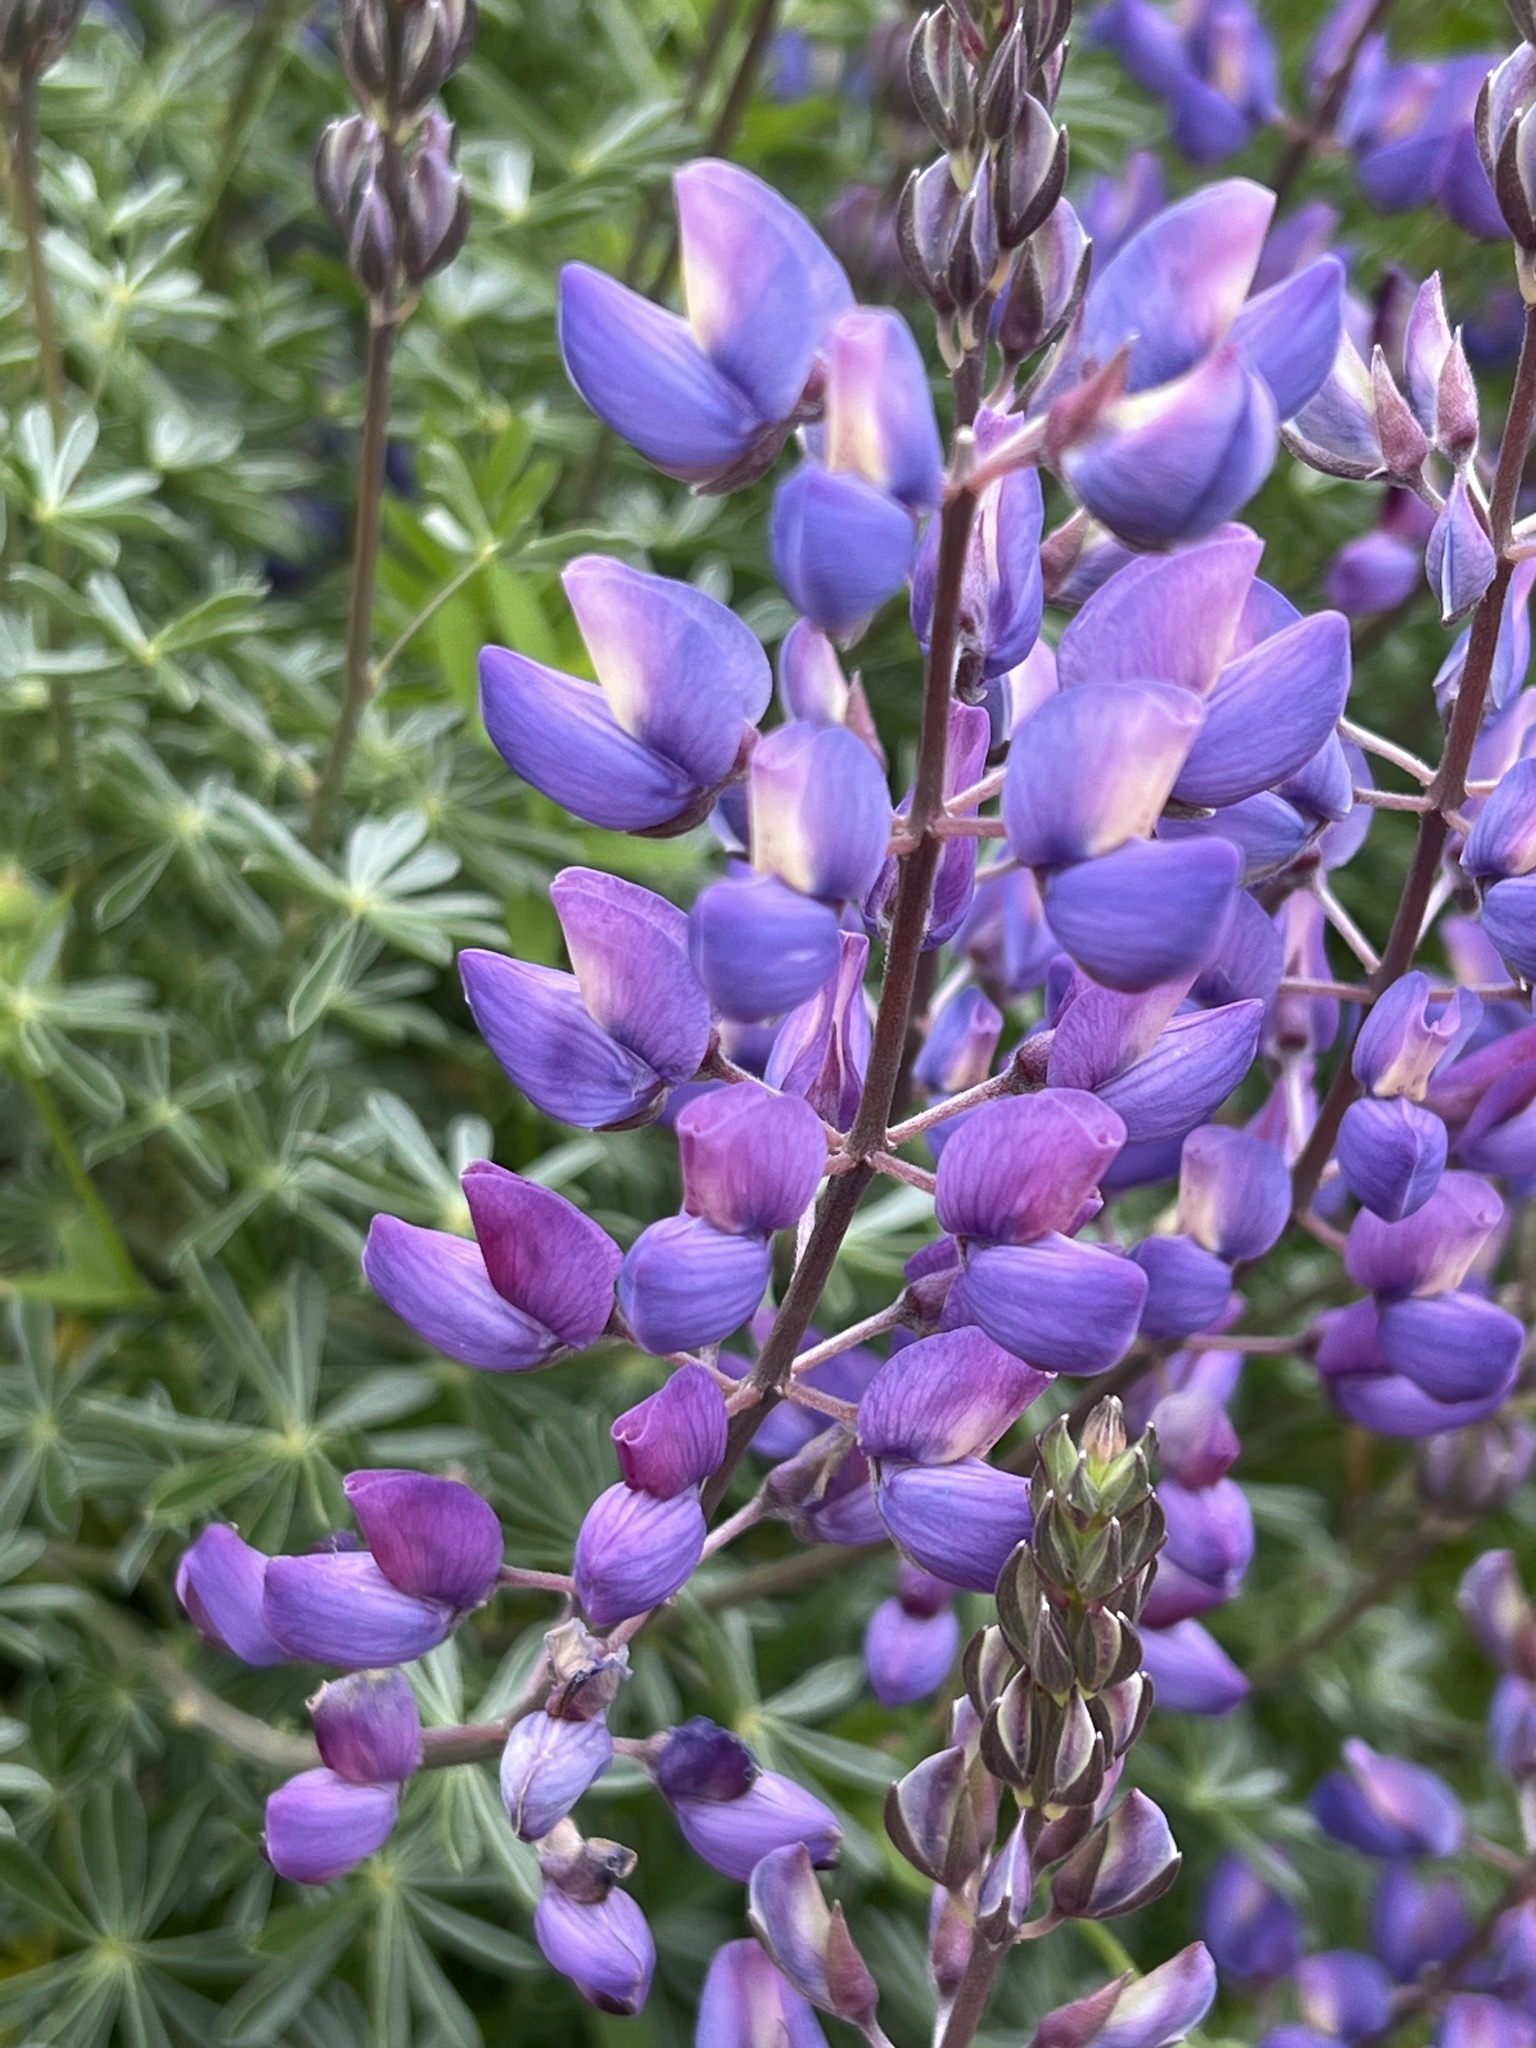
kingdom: Plantae
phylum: Tracheophyta
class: Magnoliopsida
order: Fabales
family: Fabaceae
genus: Lupinus
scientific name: Lupinus albifrons
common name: Foothill lupine
